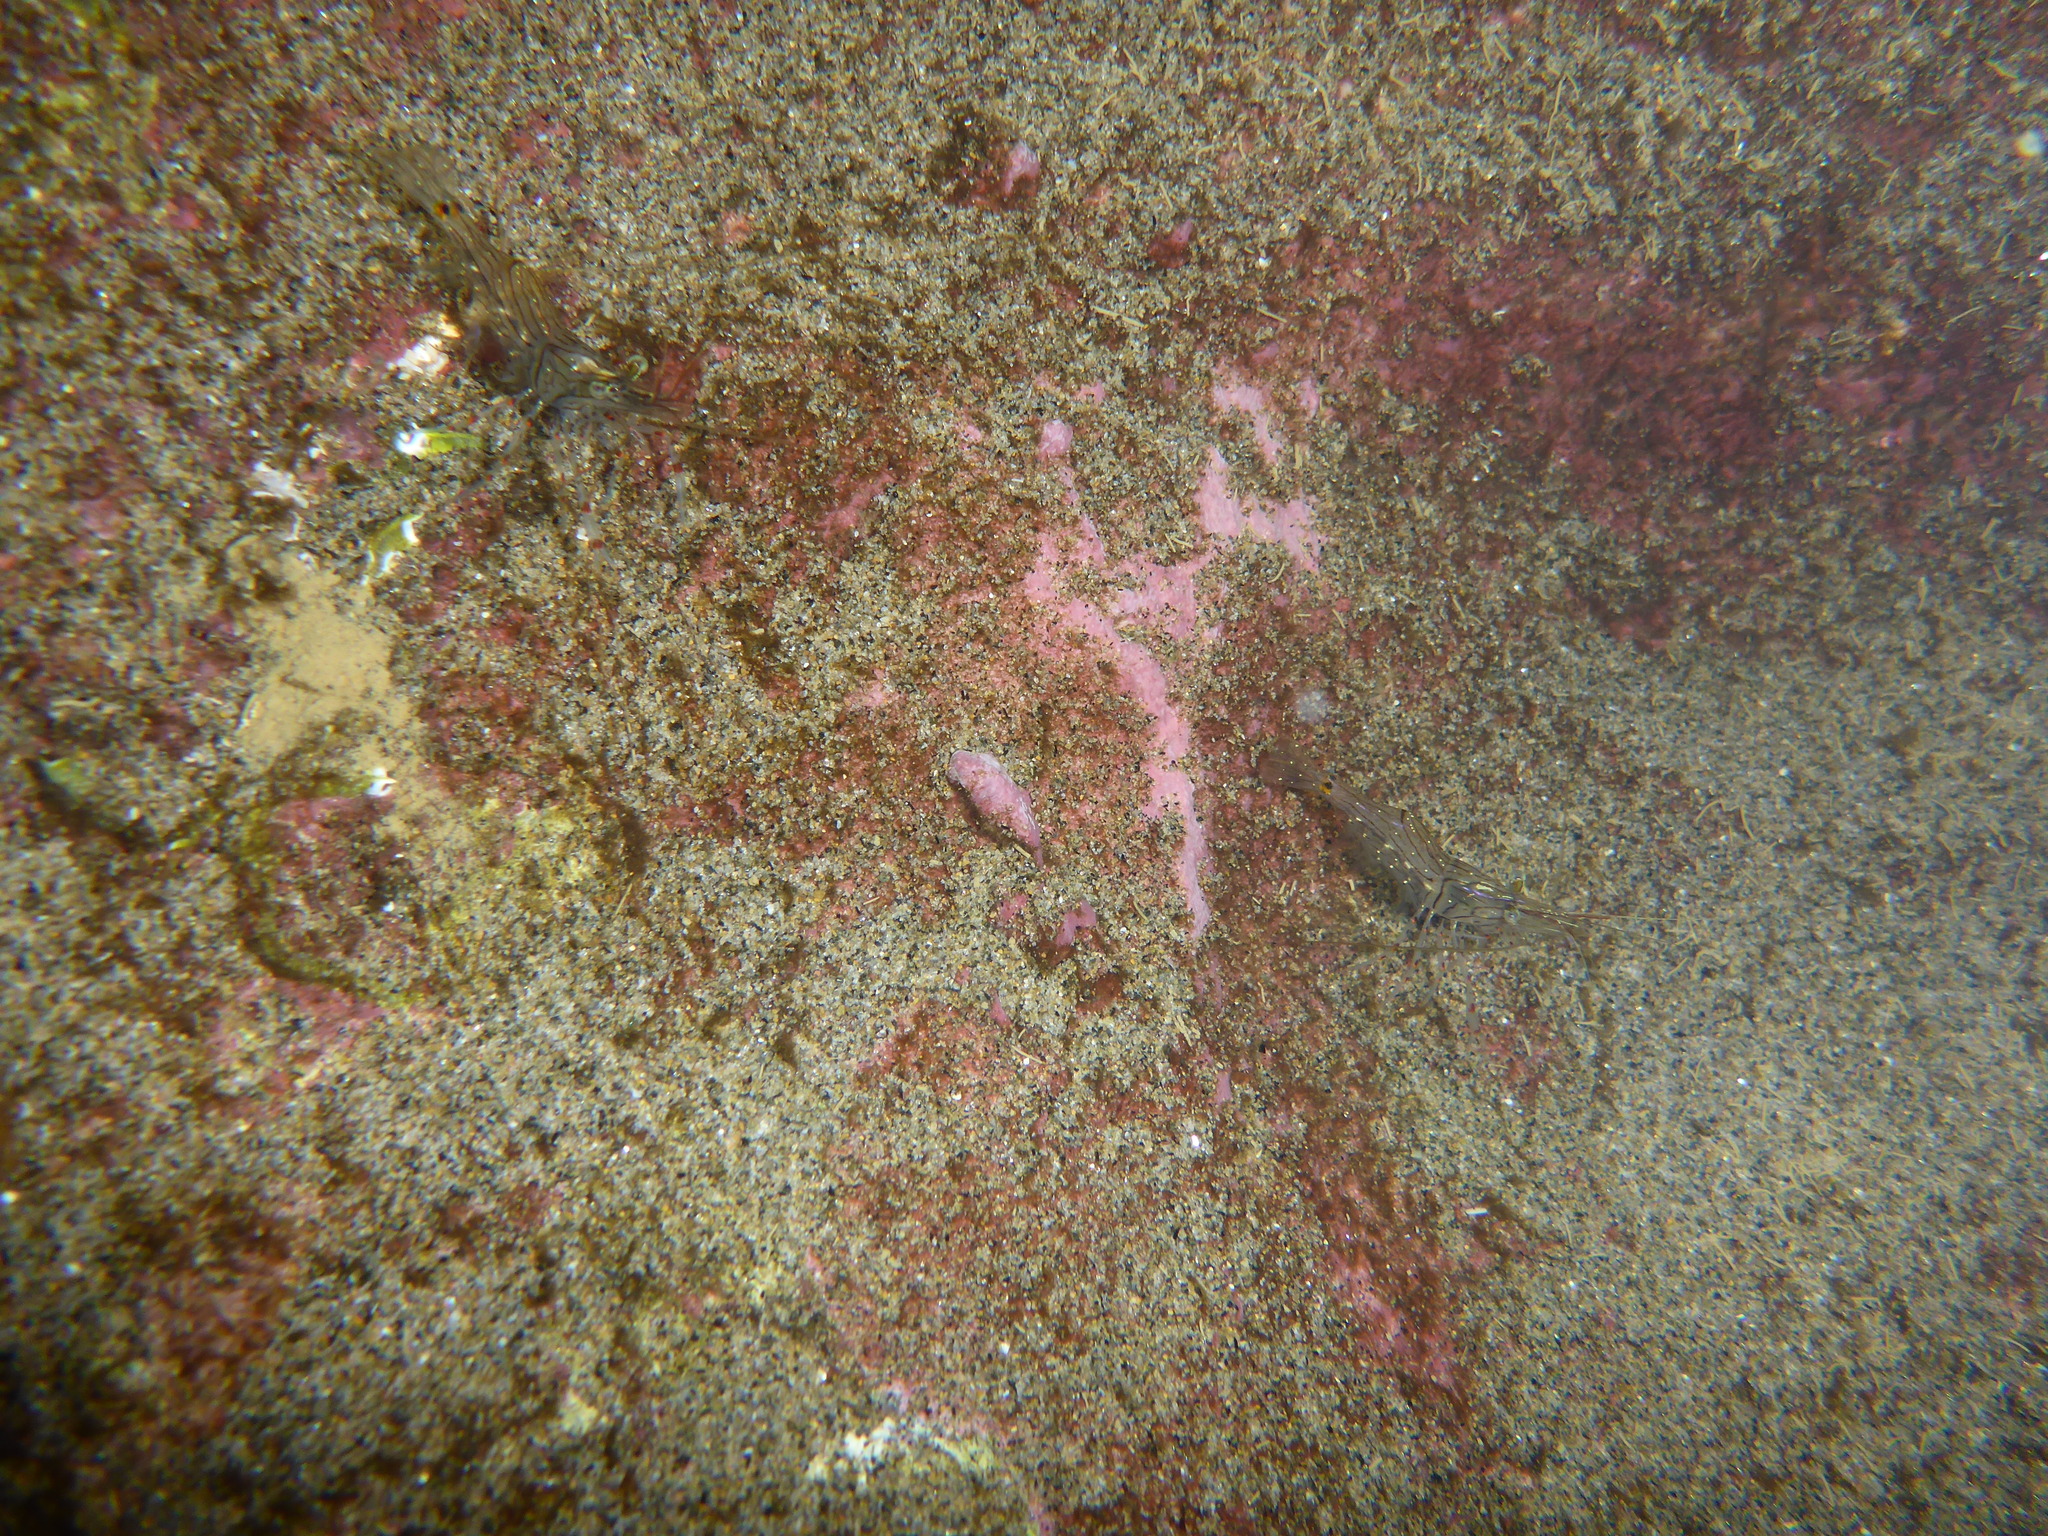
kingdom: Animalia
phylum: Arthropoda
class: Malacostraca
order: Decapoda
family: Palaemonidae
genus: Palaemon
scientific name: Palaemon affinis
